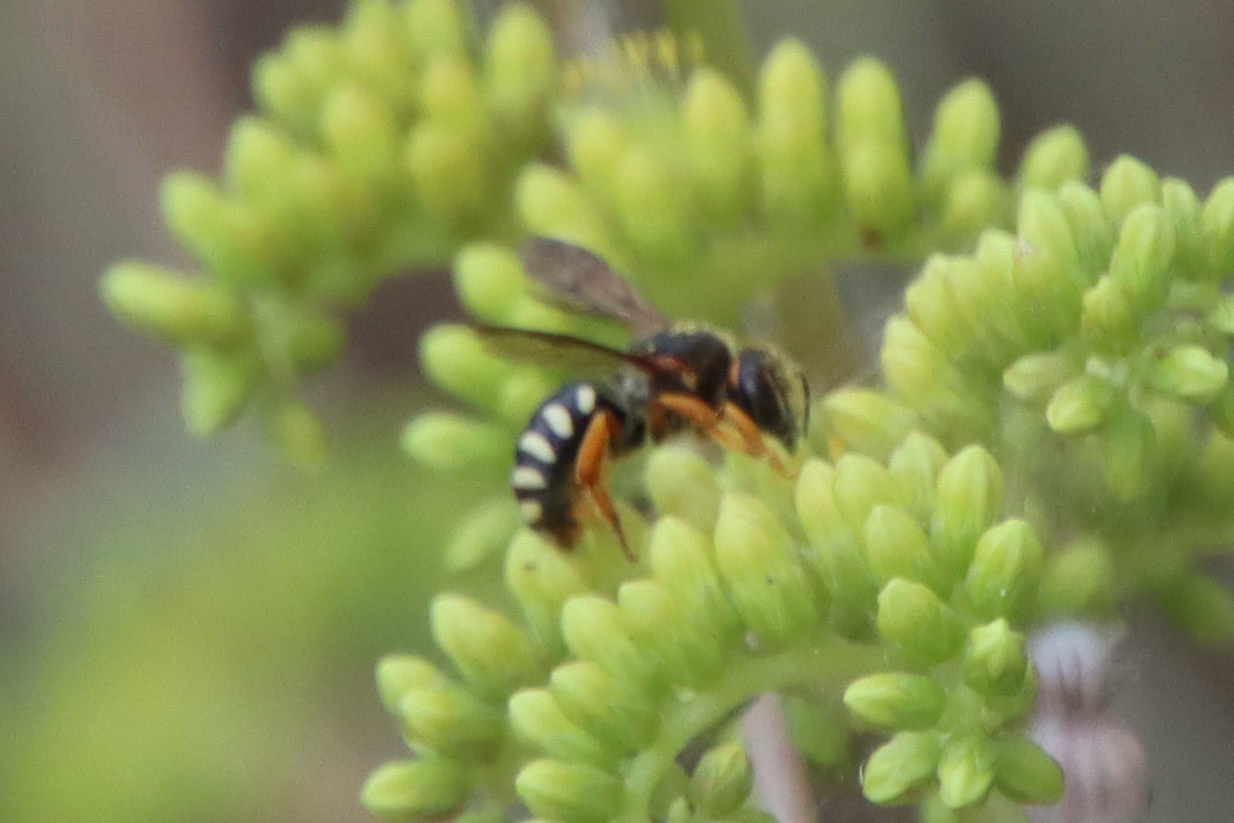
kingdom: Animalia
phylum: Arthropoda
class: Insecta
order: Hymenoptera
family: Megachilidae
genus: Rhodanthidium
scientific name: Rhodanthidium septemdentatum
